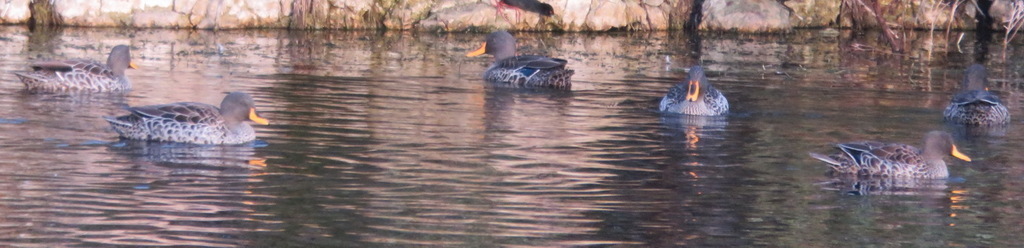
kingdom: Animalia
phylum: Chordata
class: Aves
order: Anseriformes
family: Anatidae
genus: Anas
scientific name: Anas undulata
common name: Yellow-billed duck
